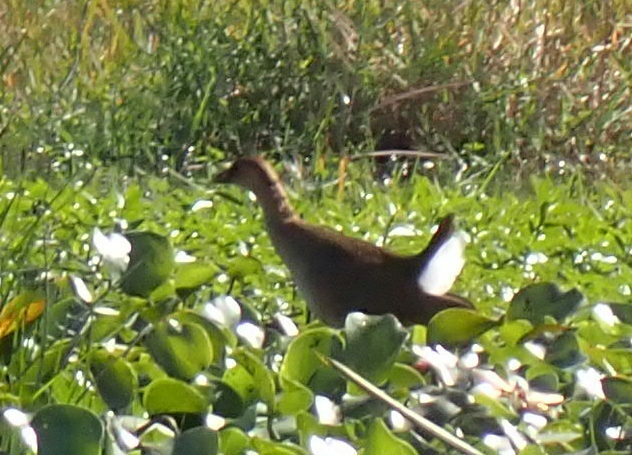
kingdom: Animalia
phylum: Chordata
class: Aves
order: Gruiformes
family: Rallidae
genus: Gallinula
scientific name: Gallinula chloropus
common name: Common moorhen
